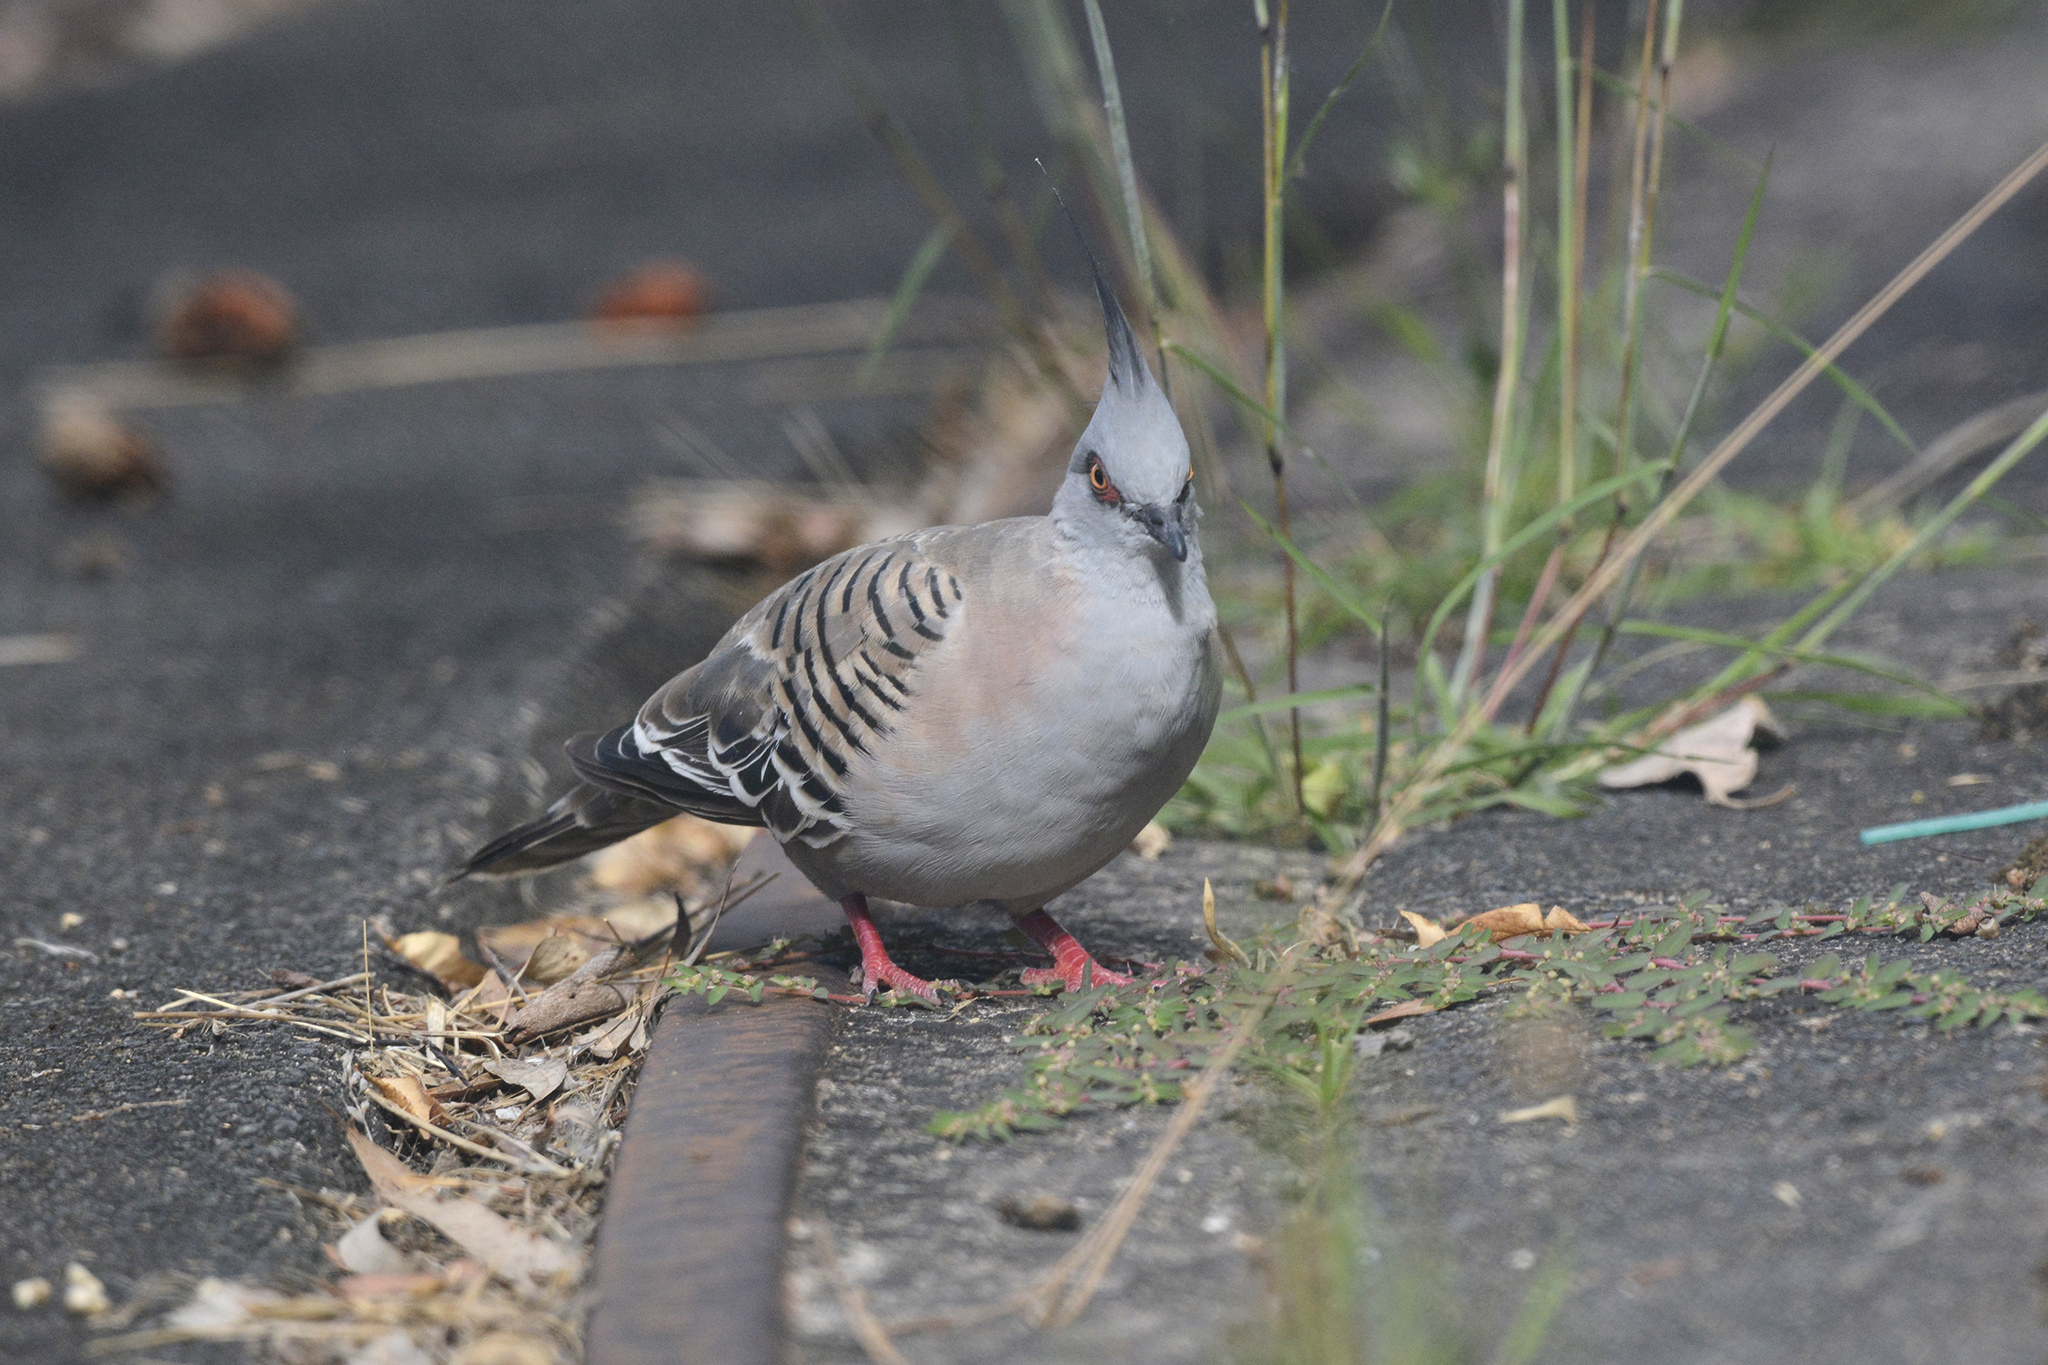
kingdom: Animalia
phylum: Chordata
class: Aves
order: Columbiformes
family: Columbidae
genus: Ocyphaps
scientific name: Ocyphaps lophotes
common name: Crested pigeon
